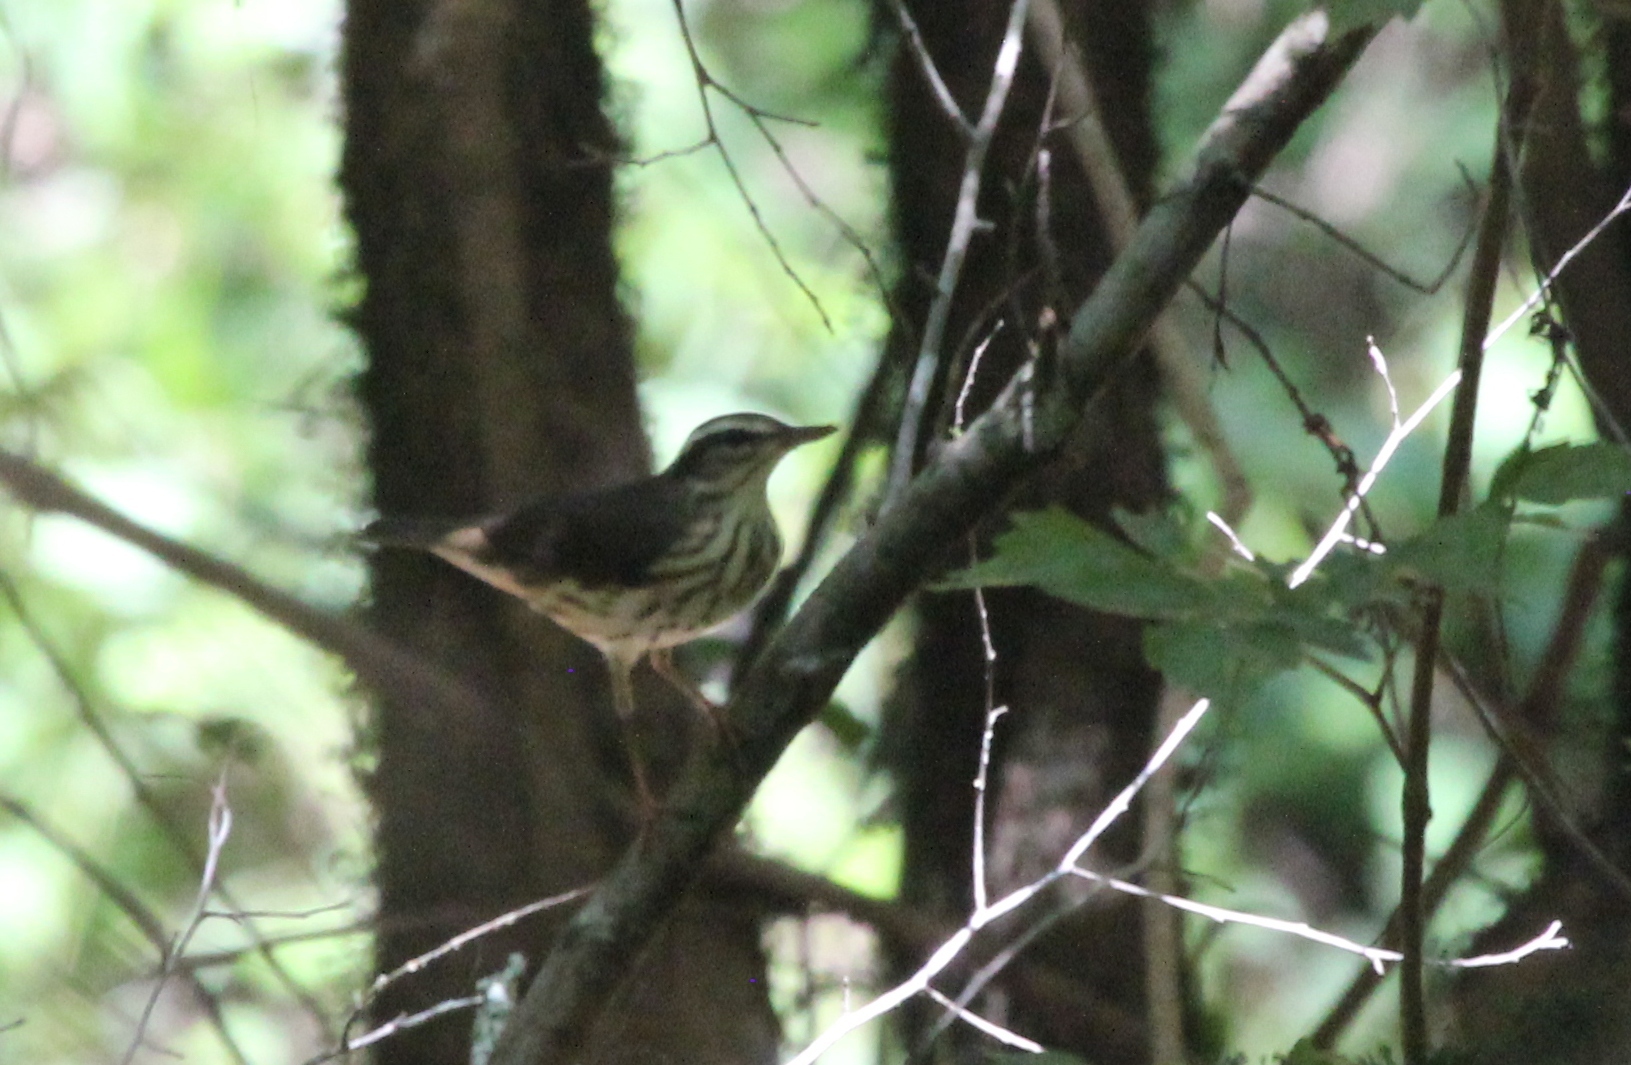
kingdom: Animalia
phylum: Chordata
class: Aves
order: Passeriformes
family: Parulidae
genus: Parkesia
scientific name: Parkesia motacilla
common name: Louisiana waterthrush
